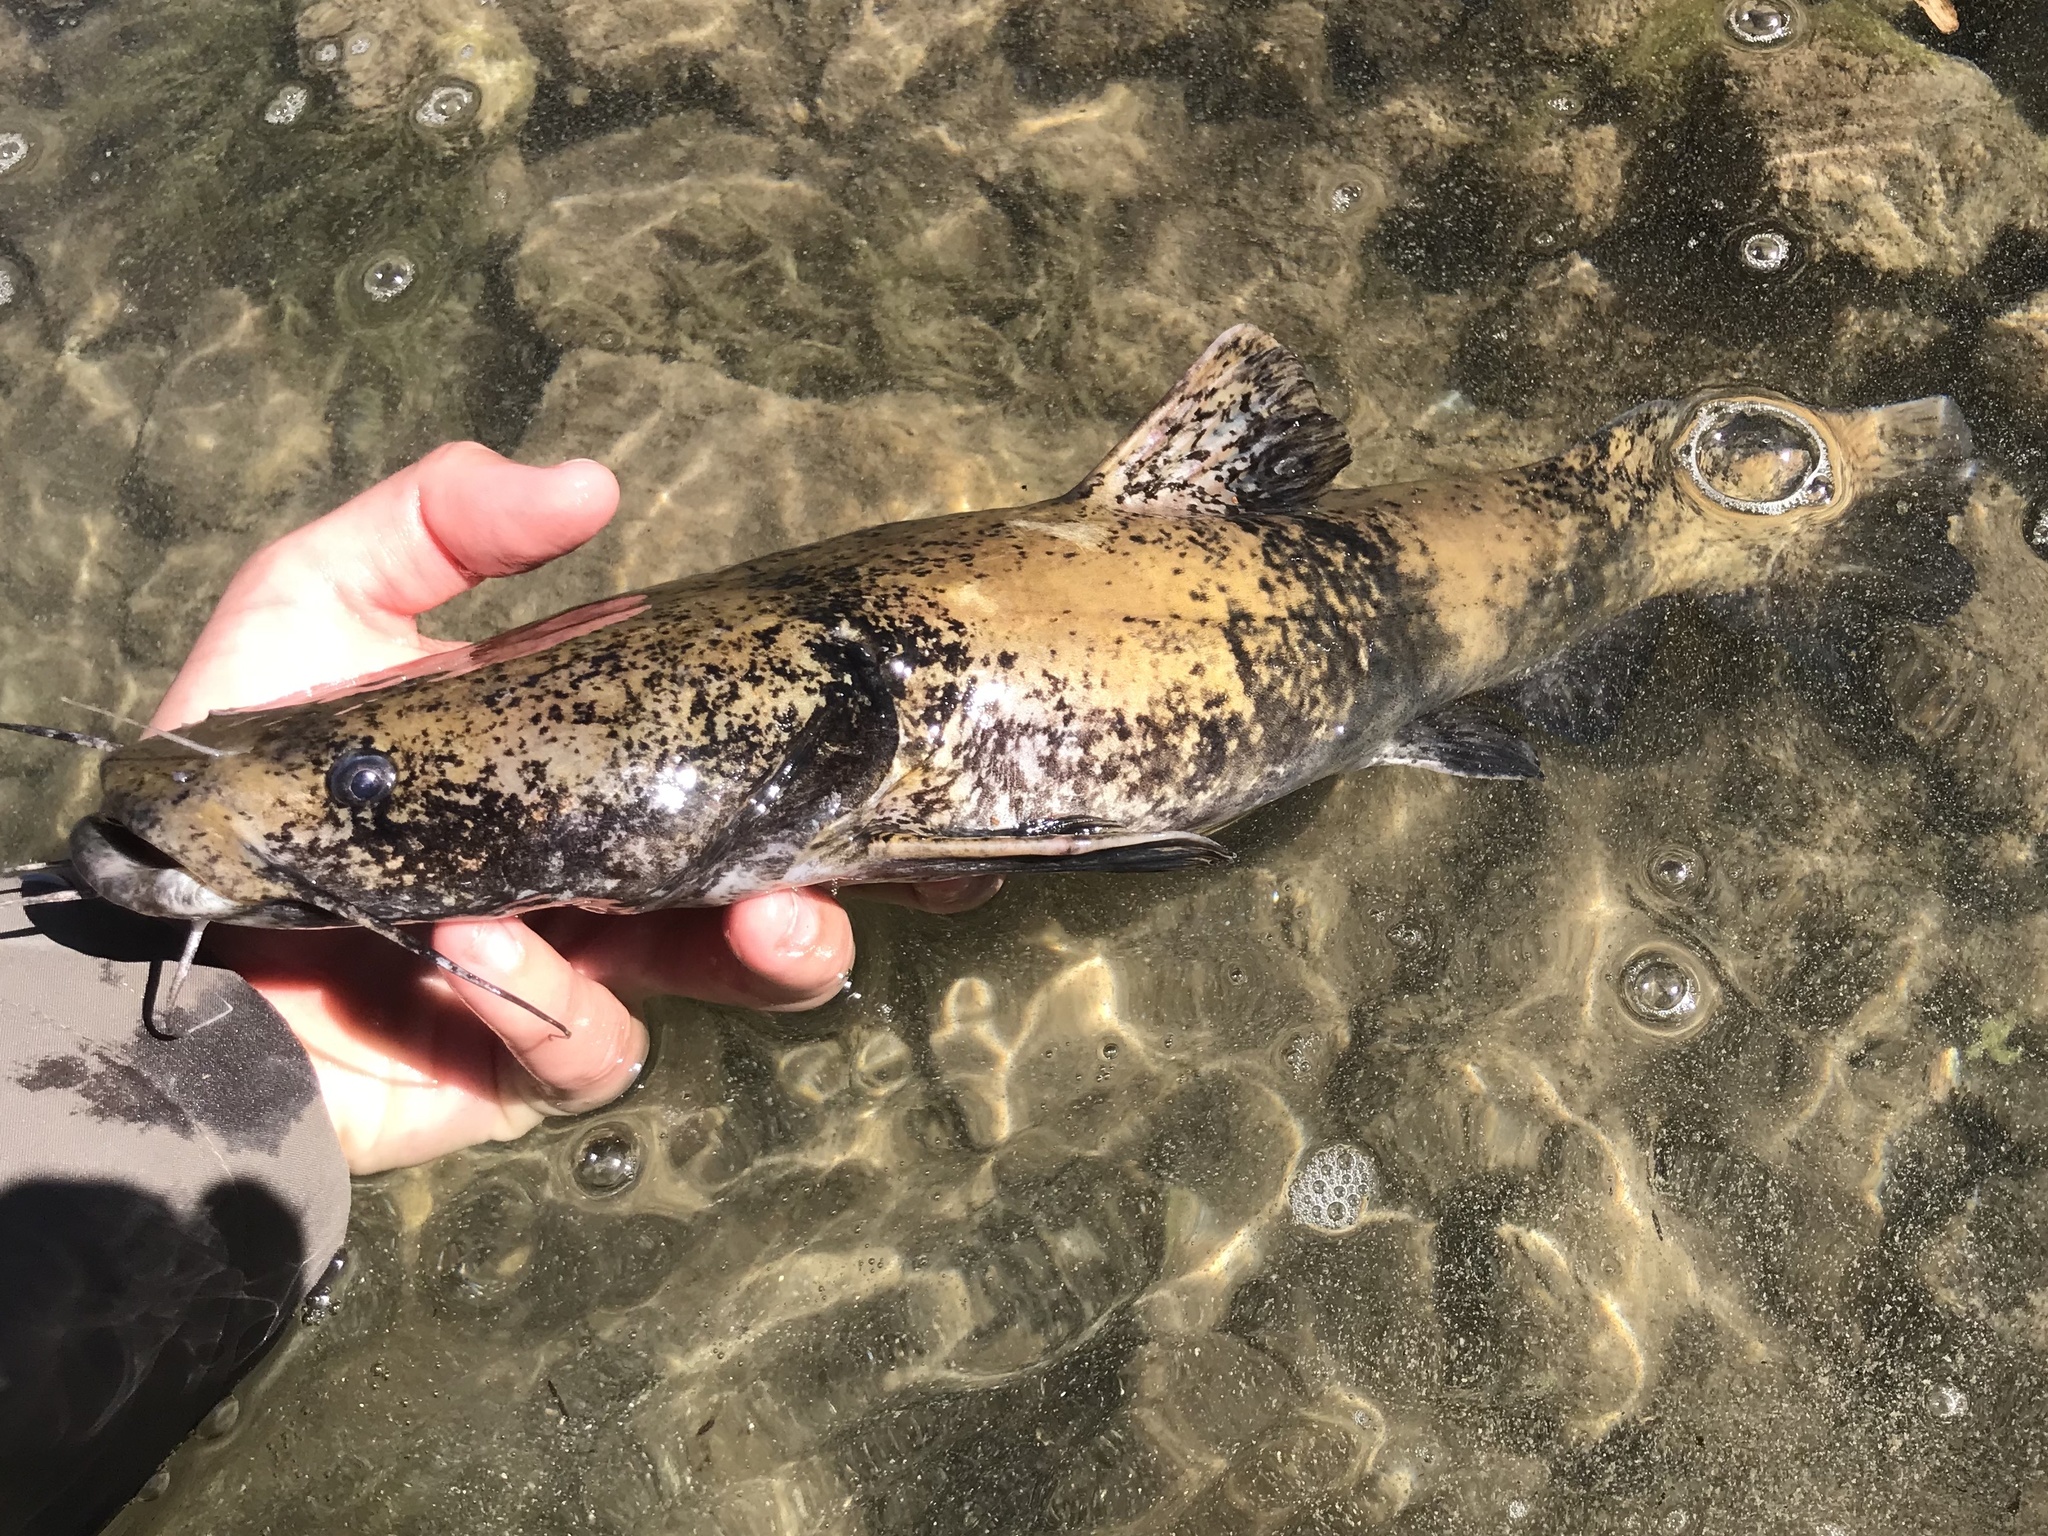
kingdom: Animalia
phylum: Chordata
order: Siluriformes
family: Ictaluridae
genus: Pylodictis
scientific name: Pylodictis olivaris
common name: Flathead catfish
